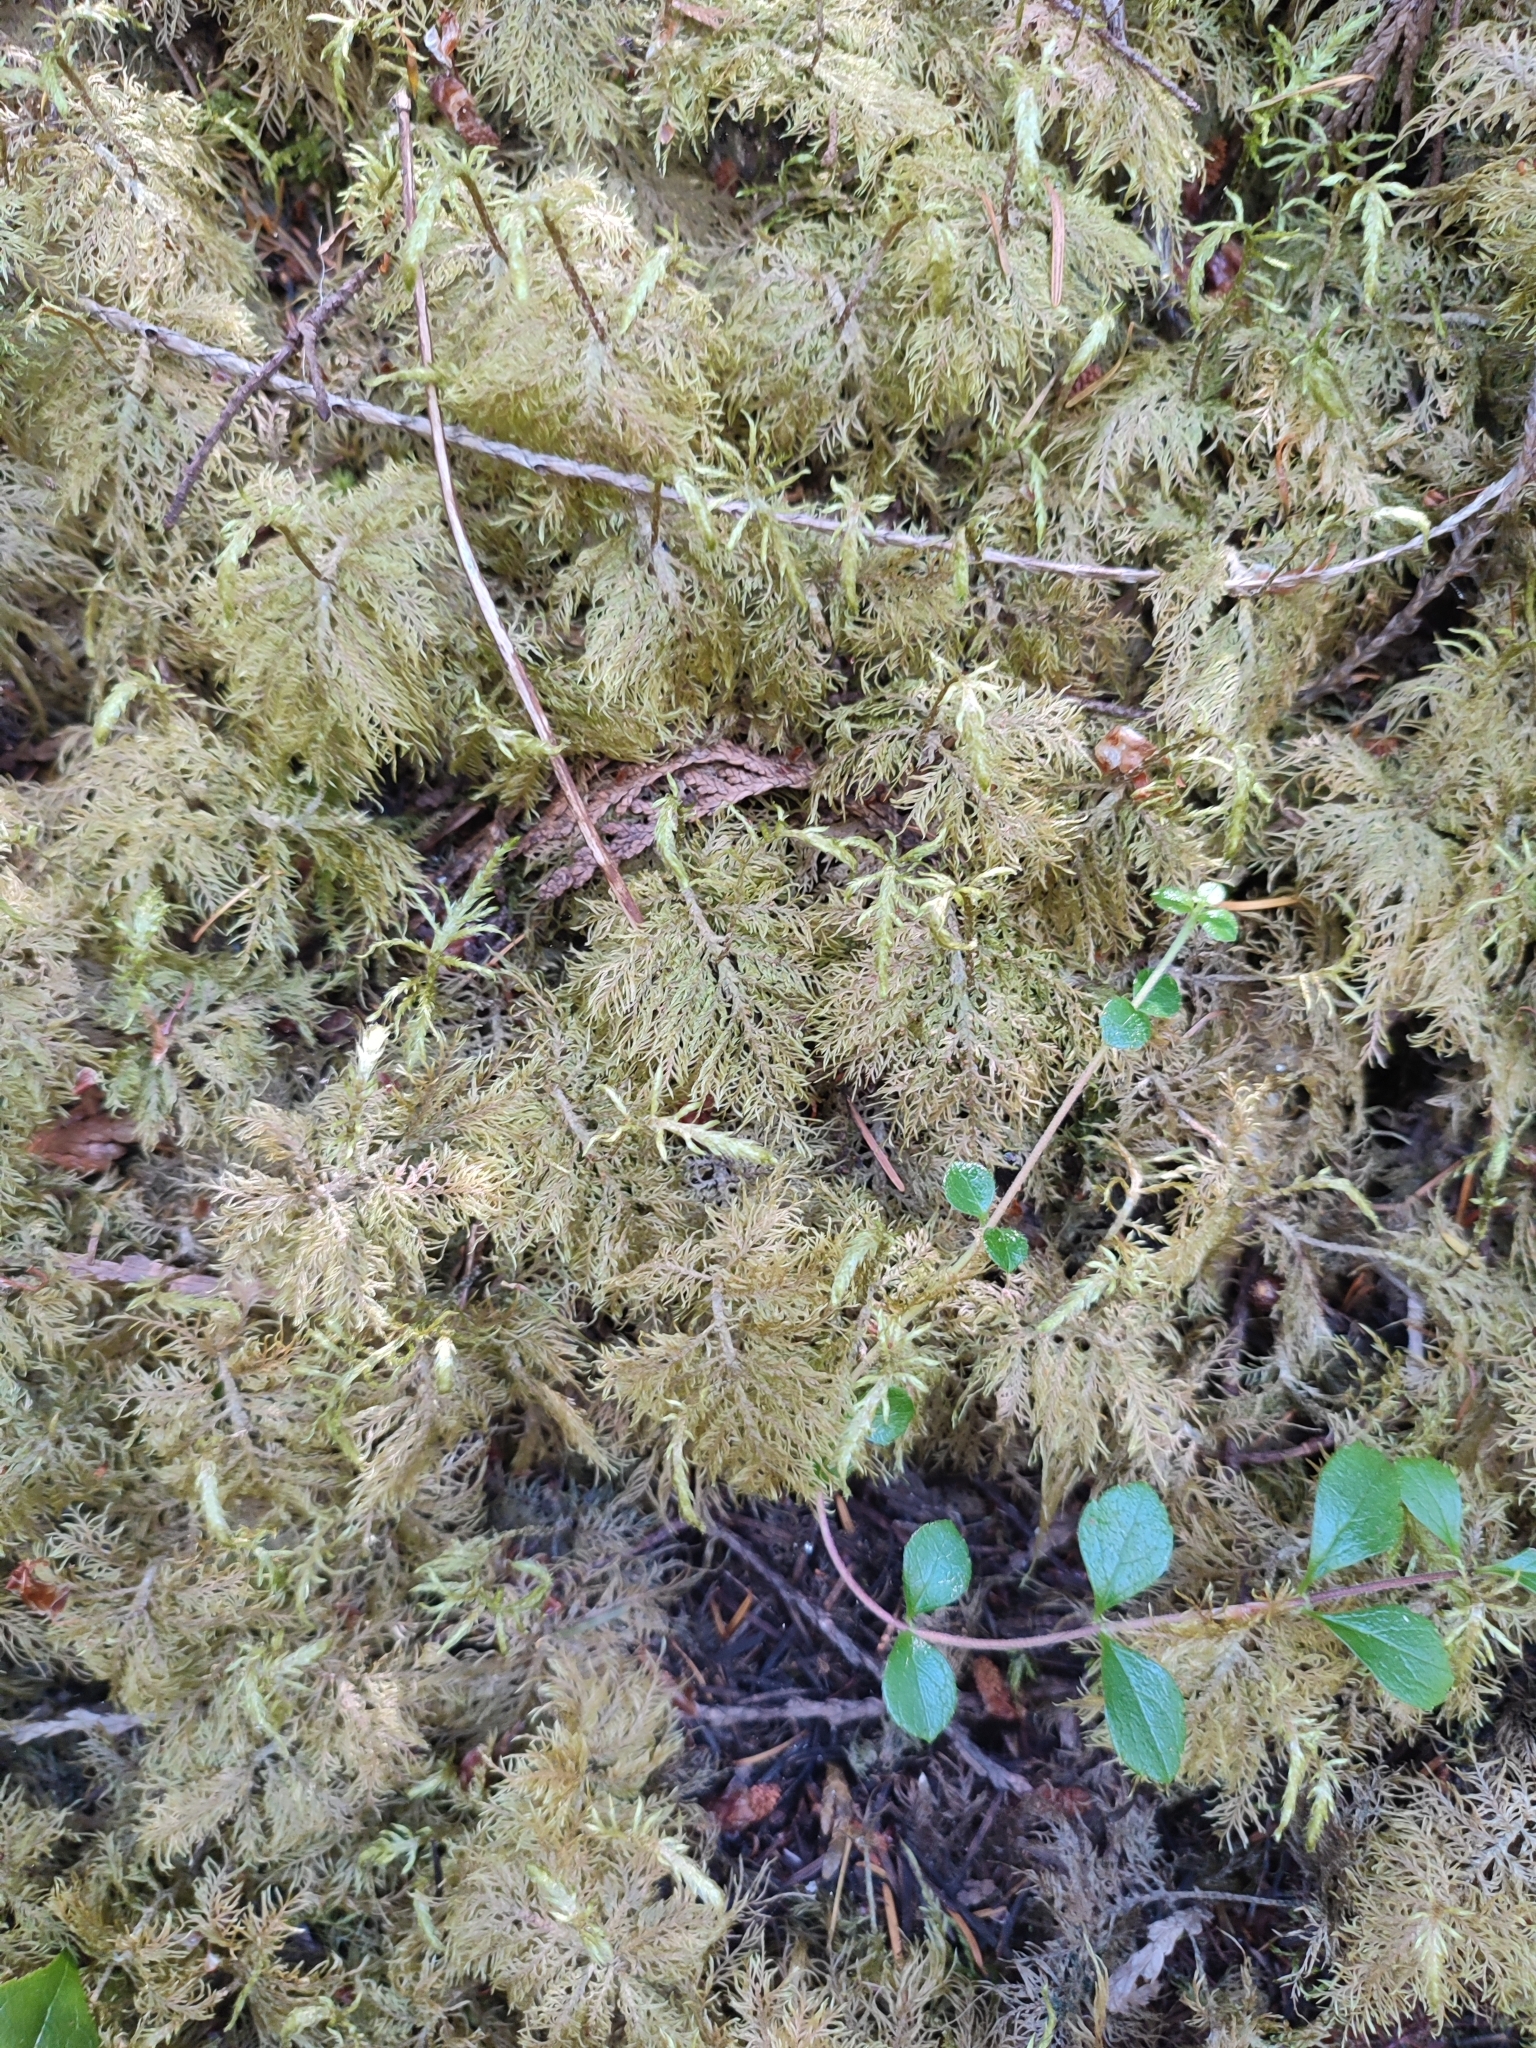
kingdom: Plantae
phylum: Bryophyta
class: Bryopsida
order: Hypnales
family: Hylocomiaceae
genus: Hylocomium
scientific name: Hylocomium splendens
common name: Stairstep moss
